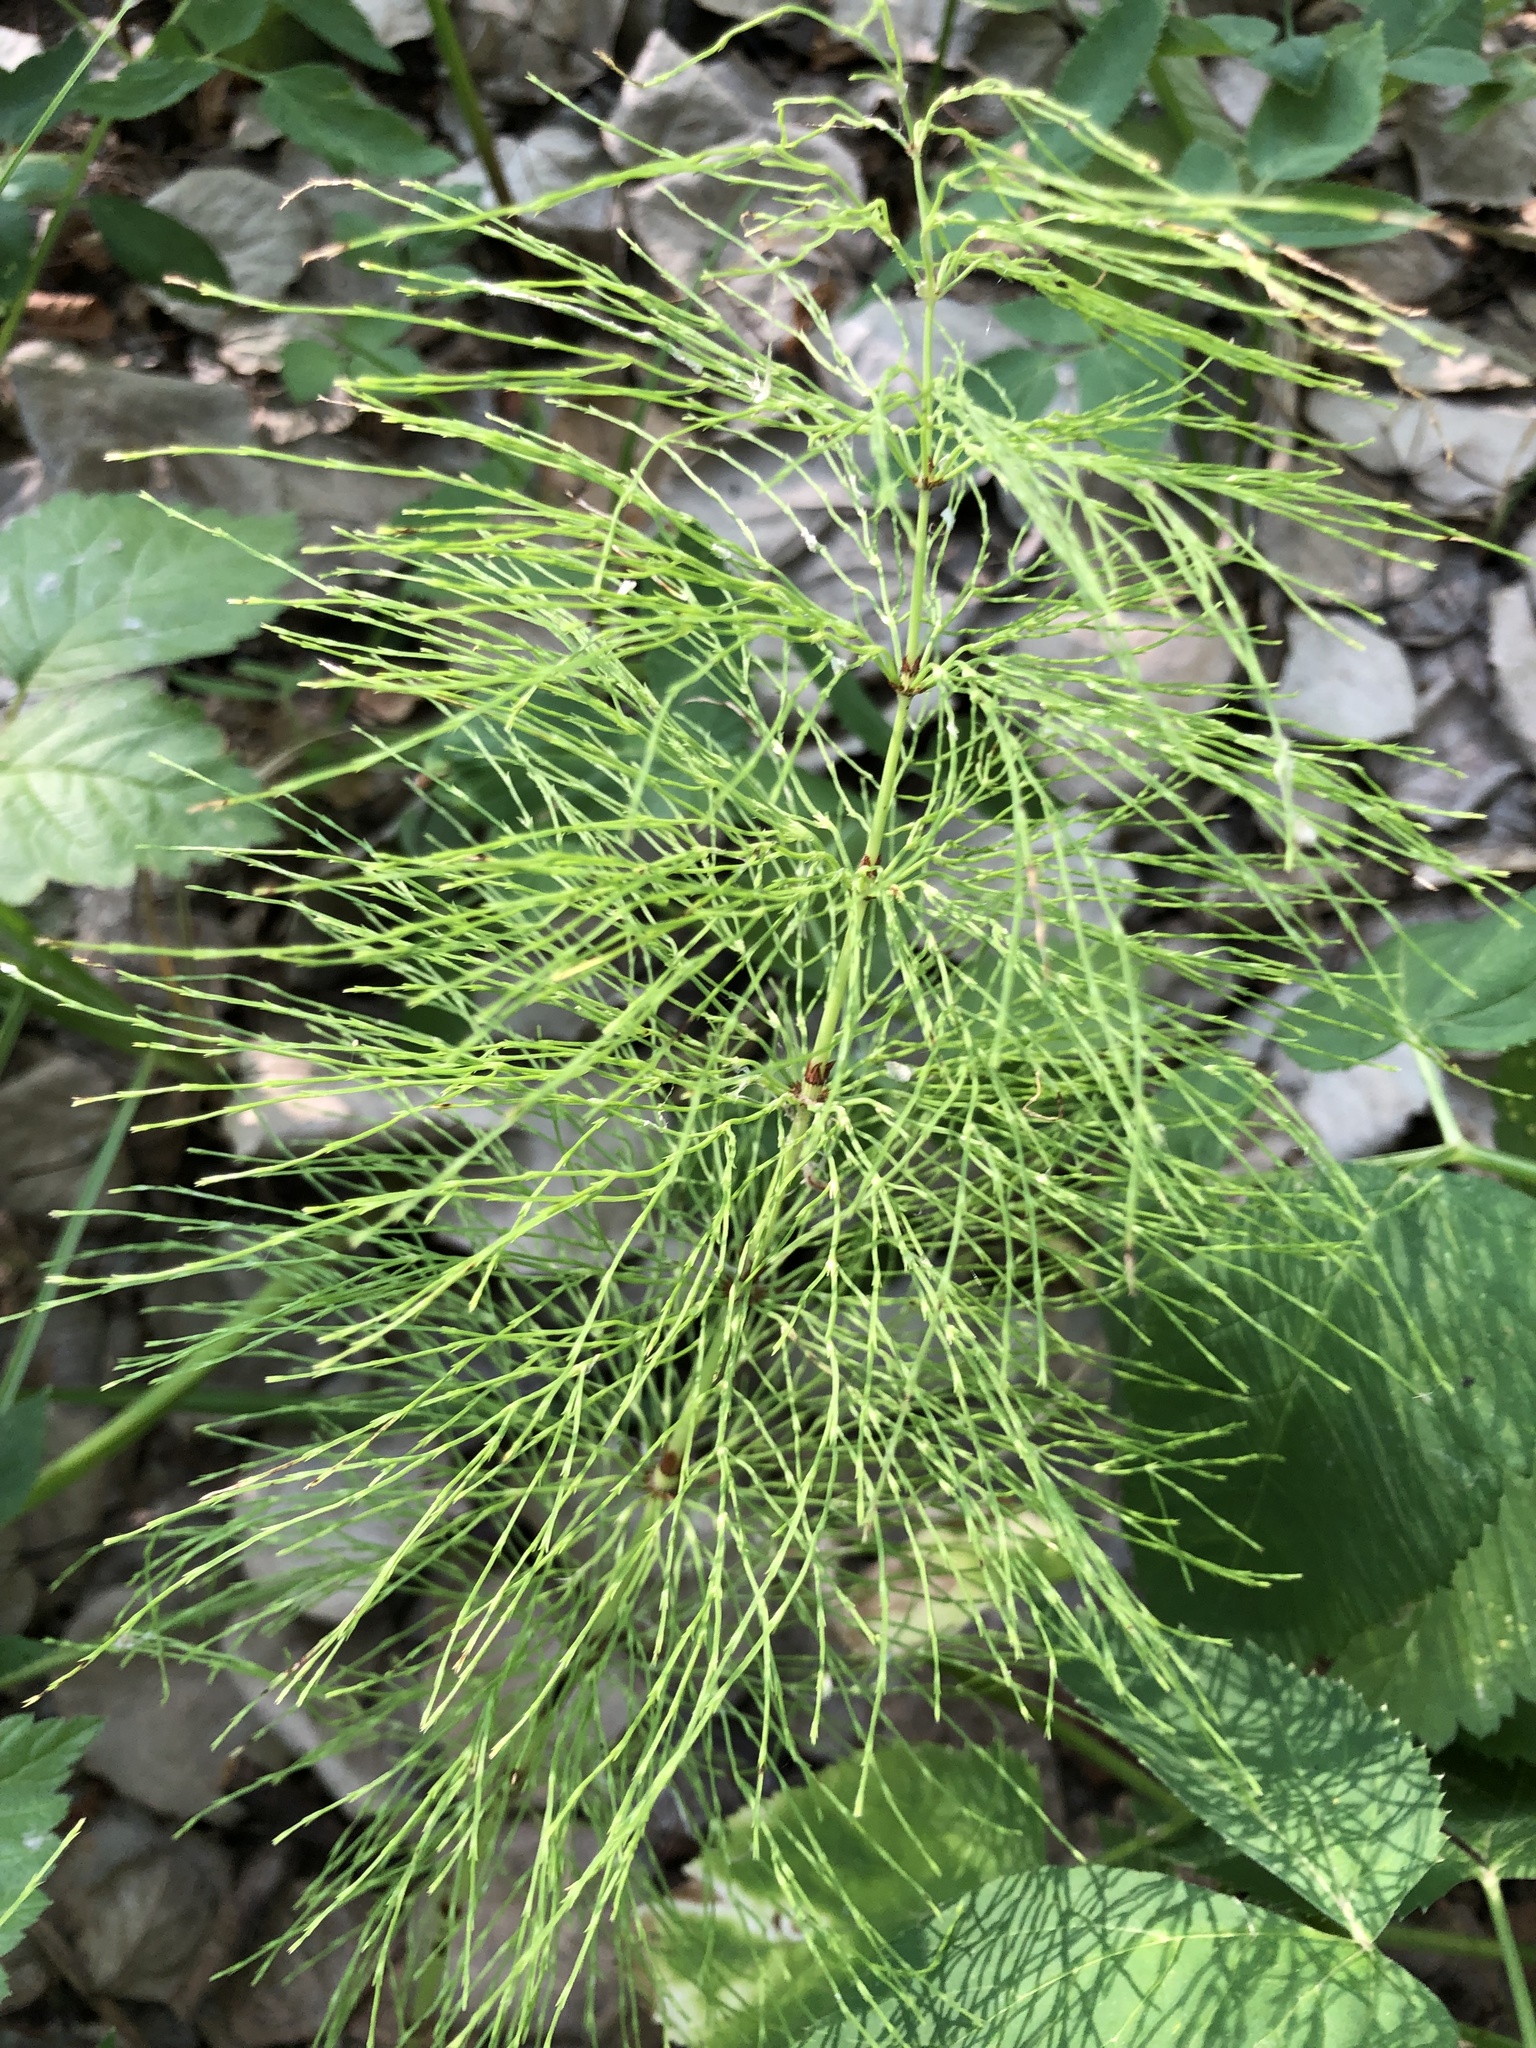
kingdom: Plantae
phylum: Tracheophyta
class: Polypodiopsida
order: Equisetales
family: Equisetaceae
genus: Equisetum
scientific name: Equisetum sylvaticum
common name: Wood horsetail
